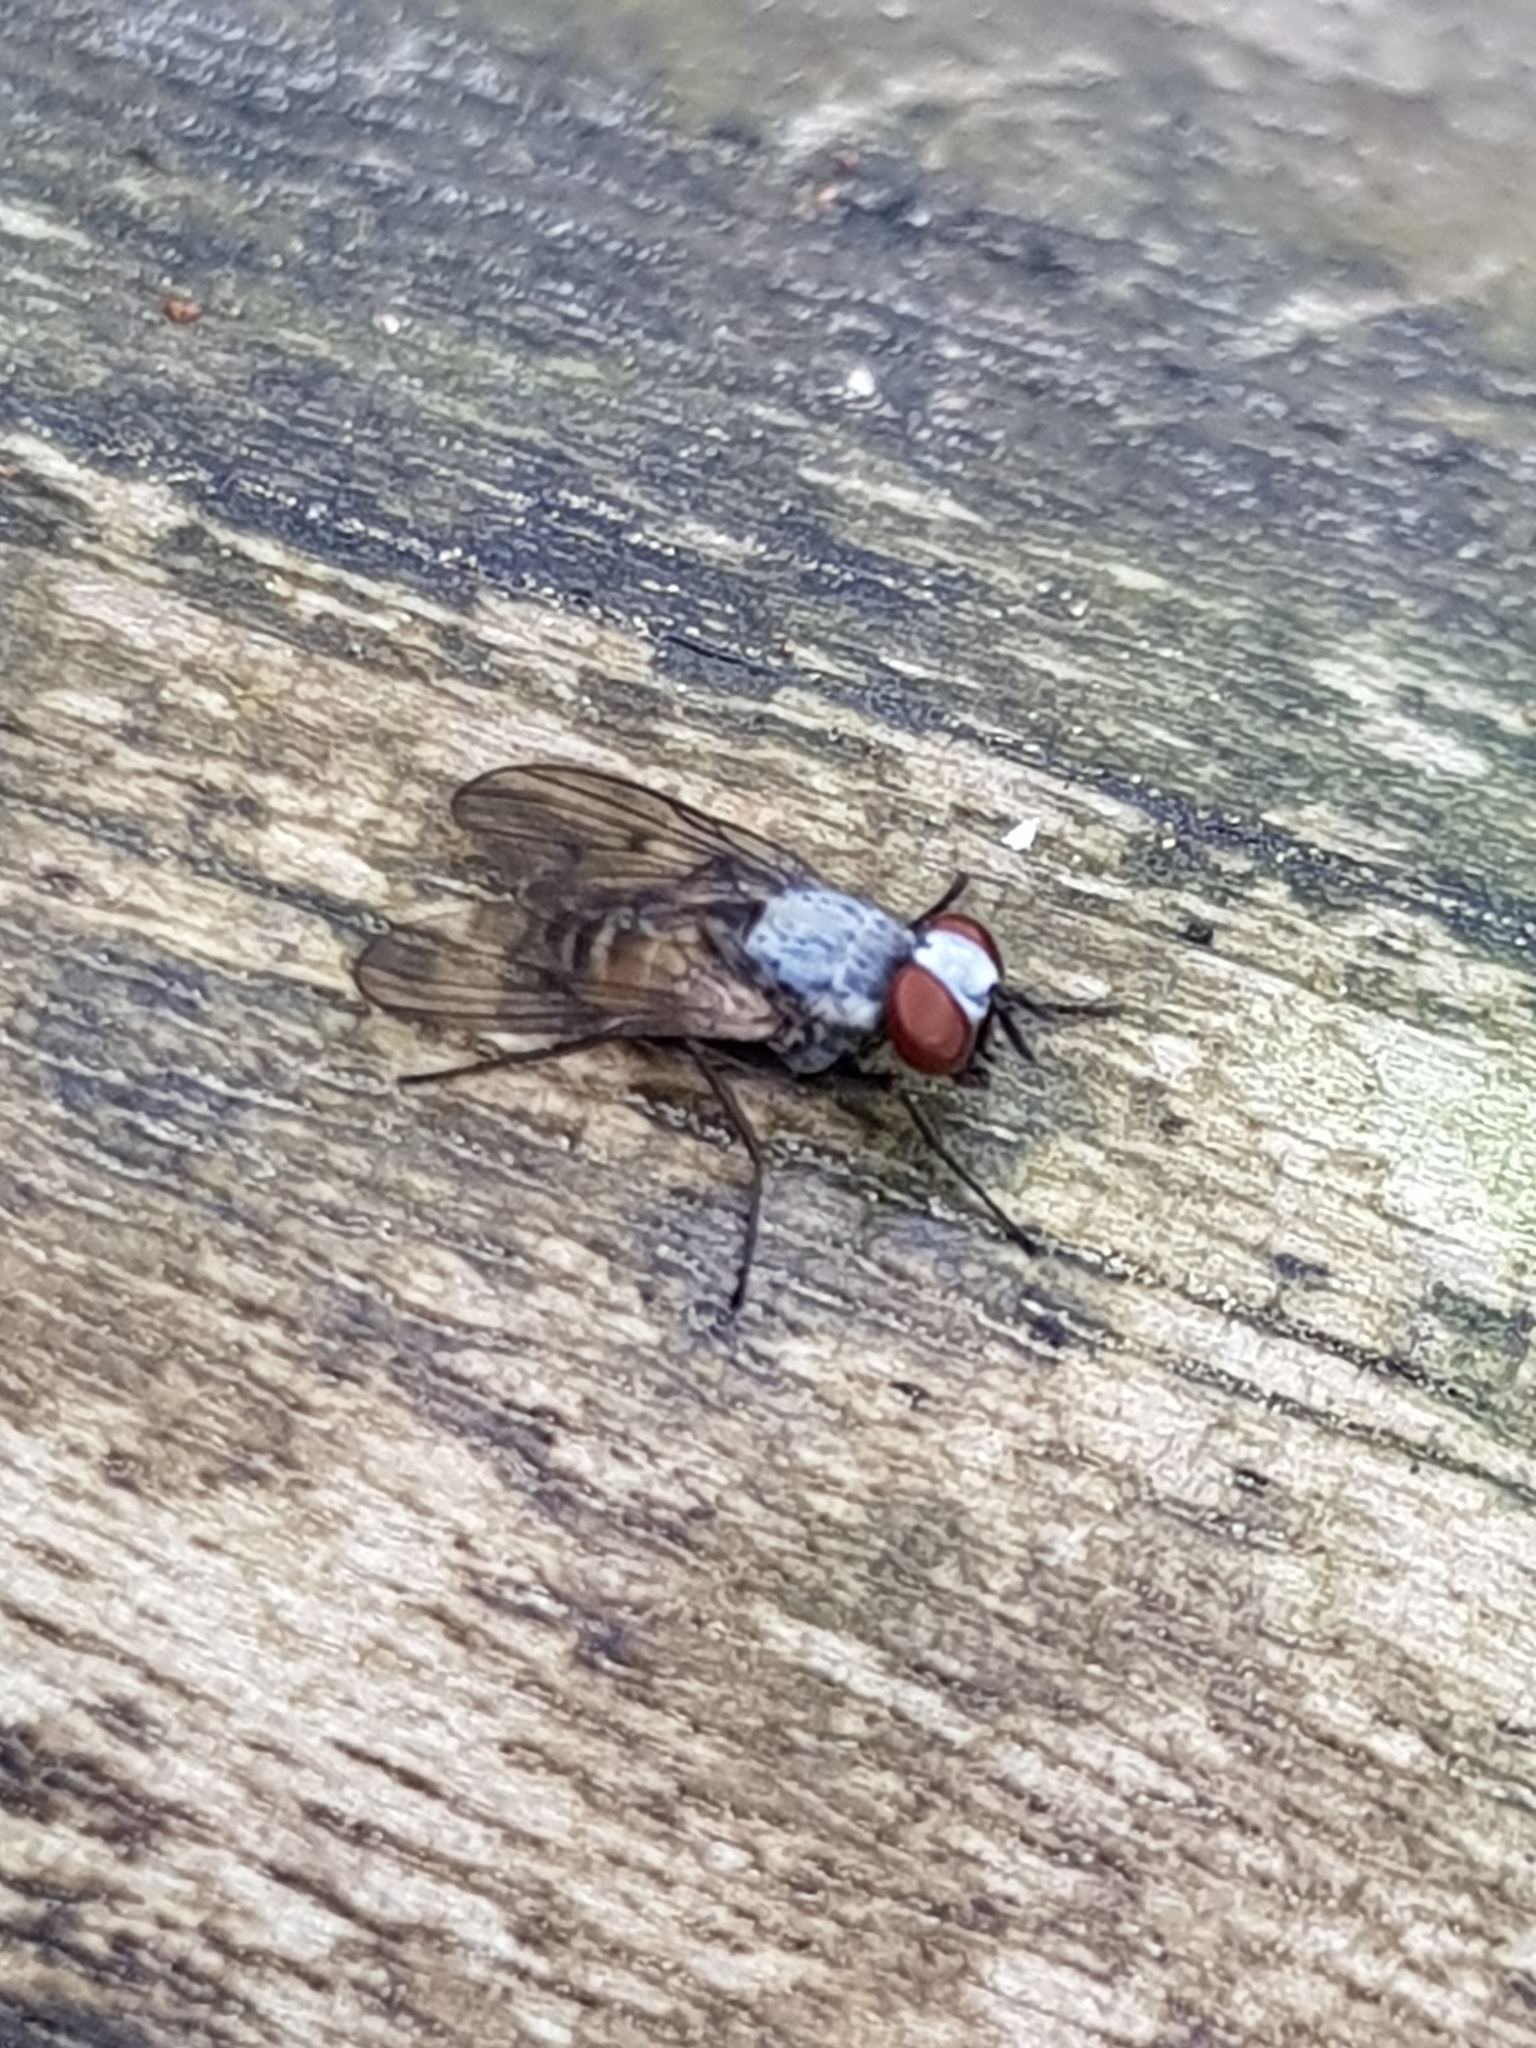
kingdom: Animalia
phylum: Arthropoda
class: Insecta
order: Diptera
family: Muscidae
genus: Spilogona
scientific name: Spilogona flaviventris
